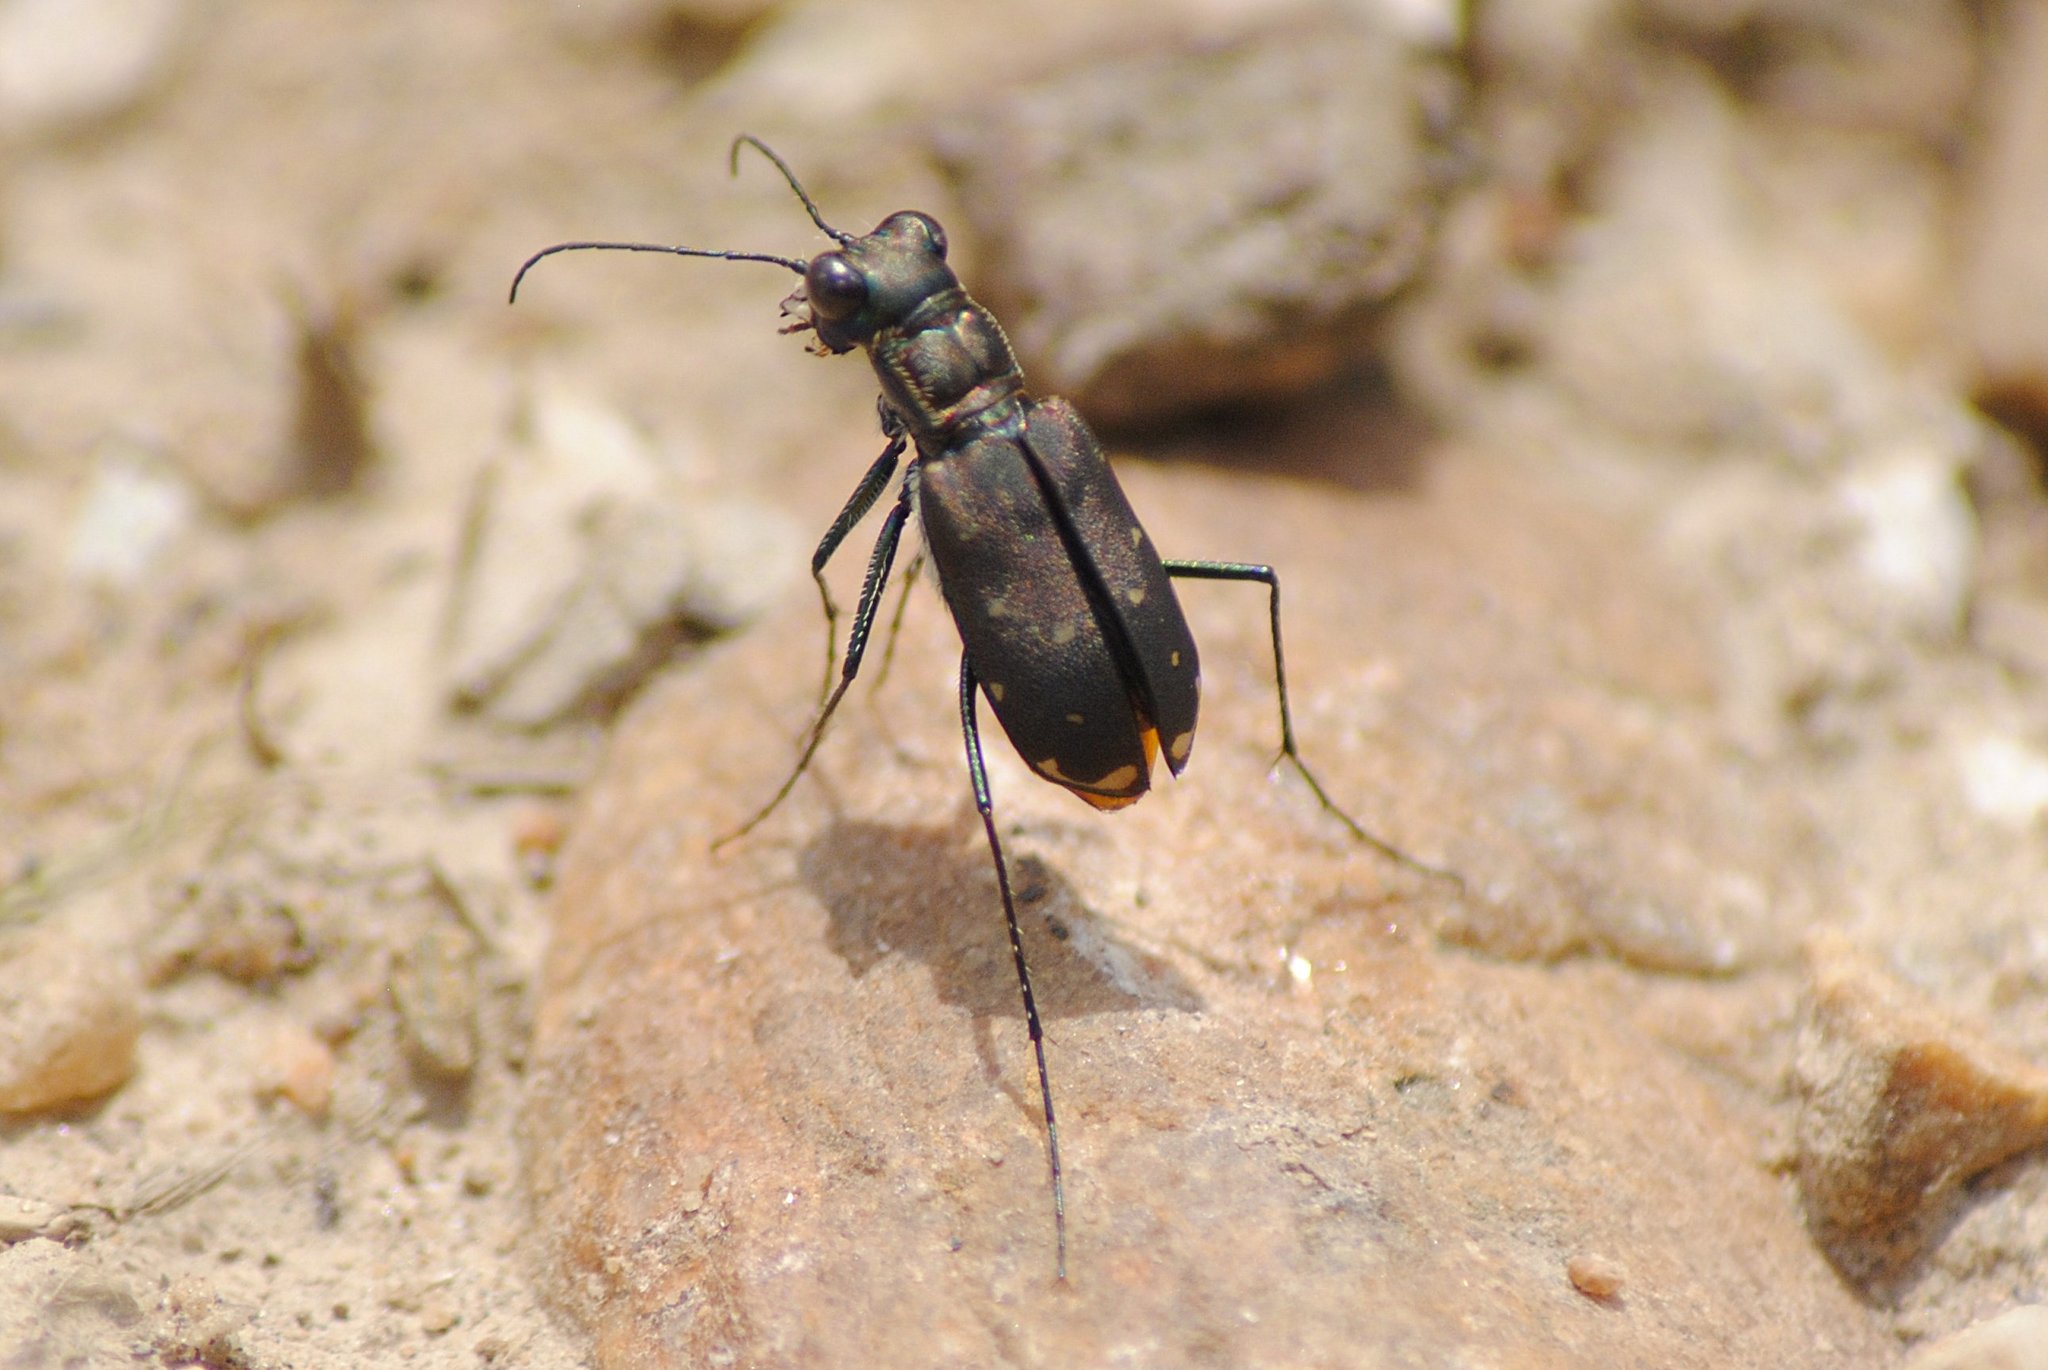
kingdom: Animalia
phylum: Arthropoda
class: Insecta
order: Coleoptera
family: Carabidae
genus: Cicindela
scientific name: Cicindela rufiventris
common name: Eastern red-bellied tiger beetle
